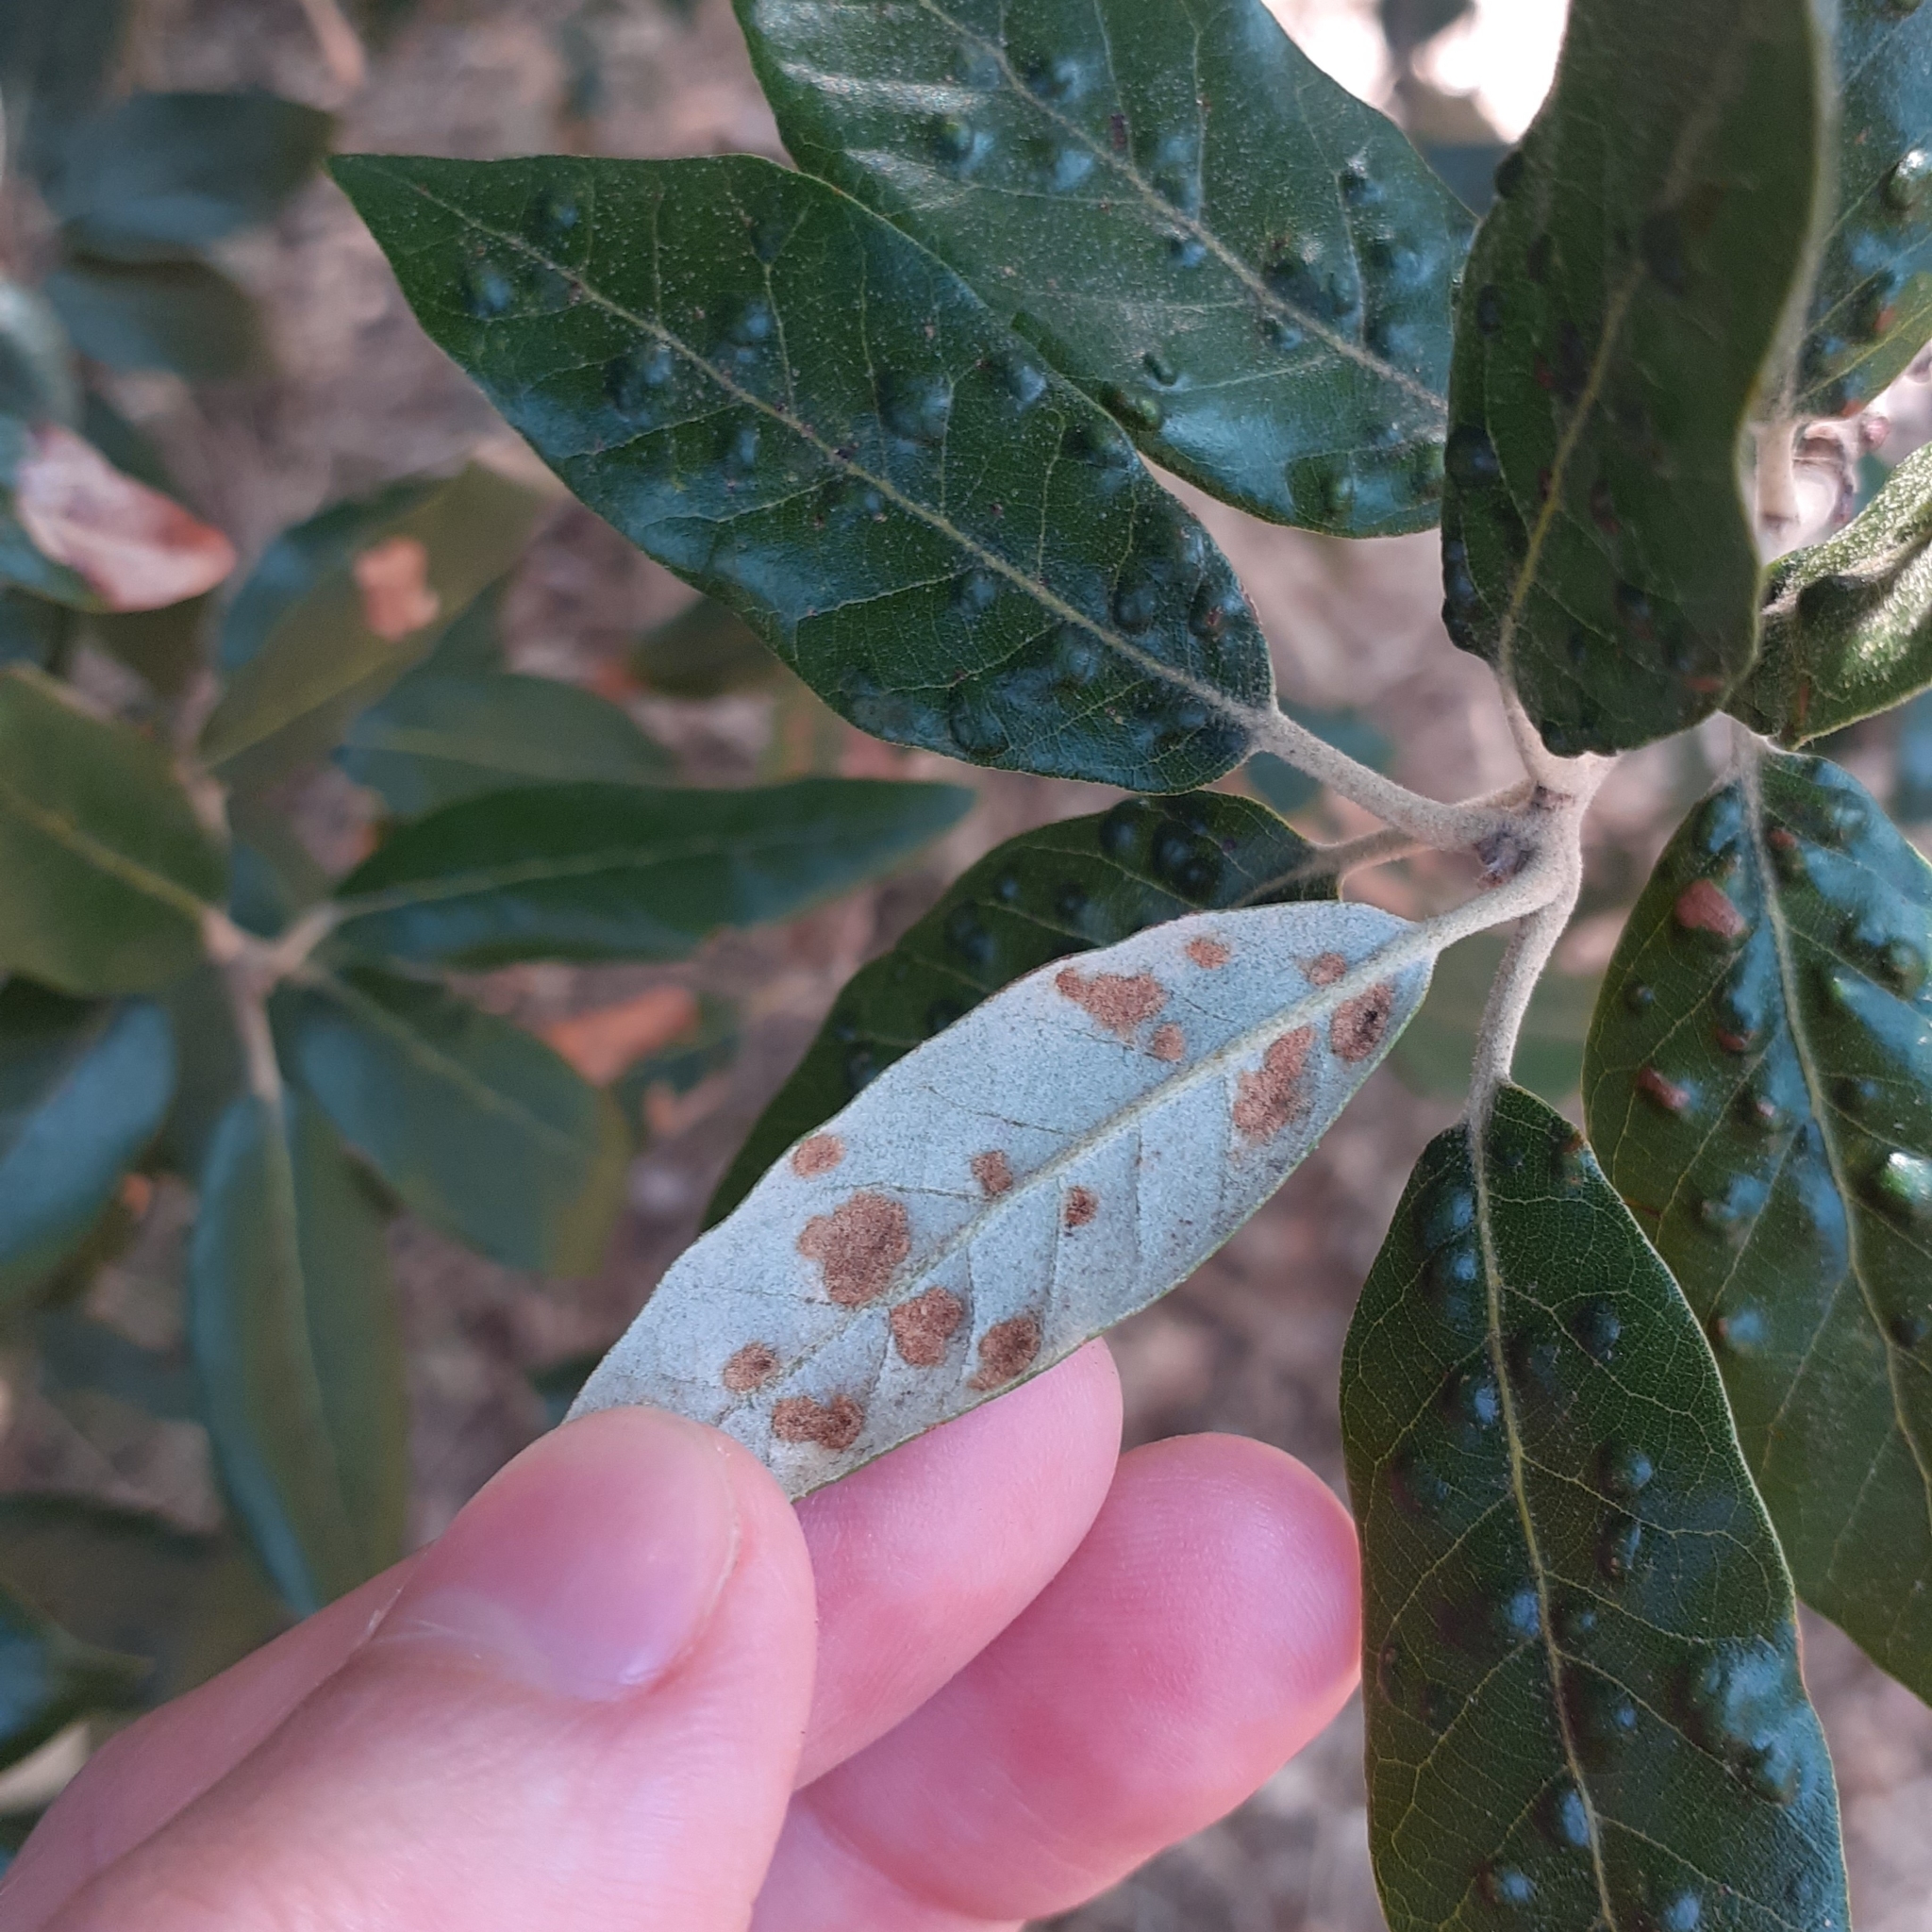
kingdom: Animalia
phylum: Arthropoda
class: Arachnida
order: Trombidiformes
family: Eriophyidae
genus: Aceria
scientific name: Aceria ilicis
